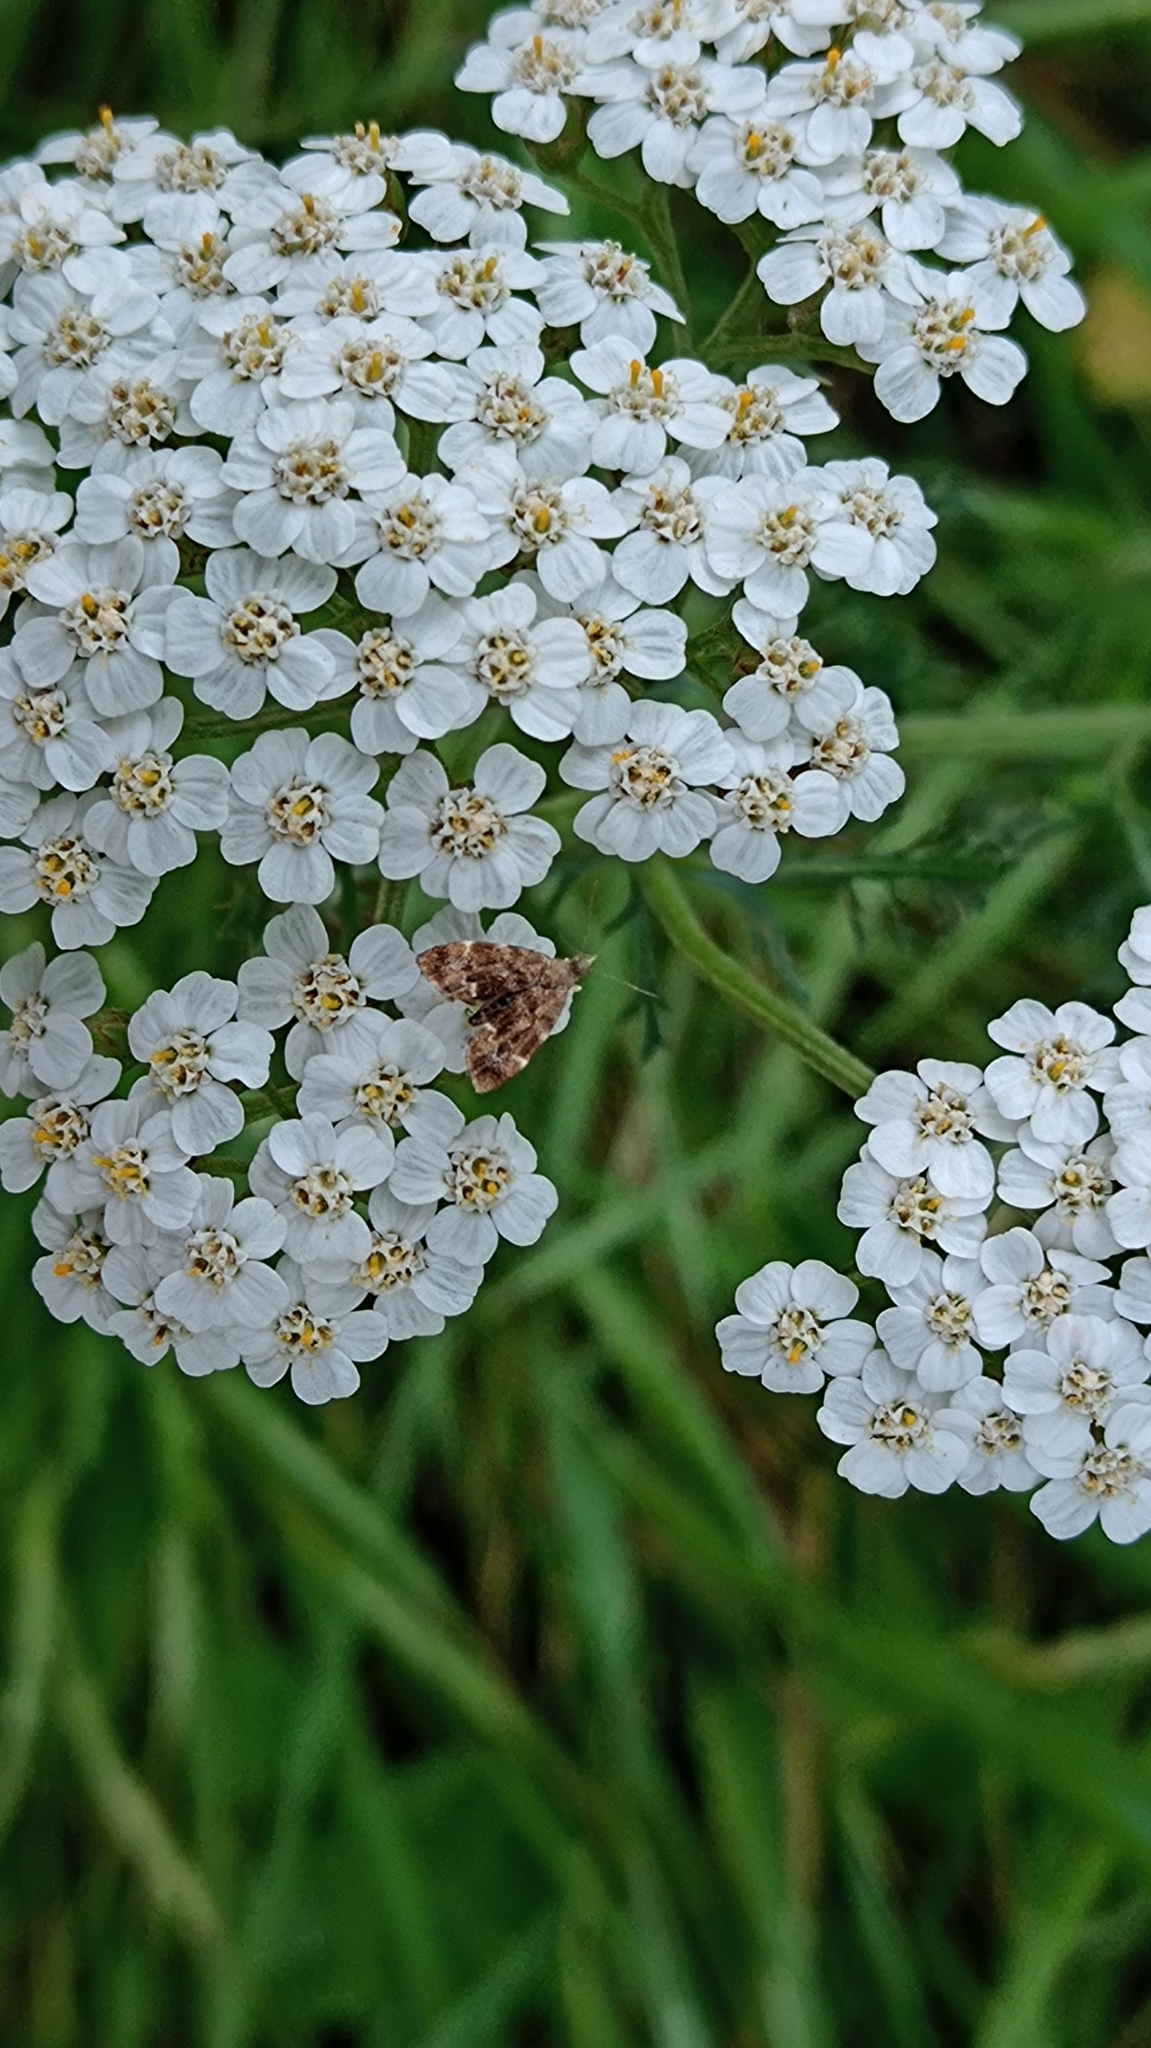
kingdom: Animalia
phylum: Arthropoda
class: Insecta
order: Lepidoptera
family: Choreutidae
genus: Anthophila
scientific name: Anthophila fabriciana
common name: Nettle-tap
